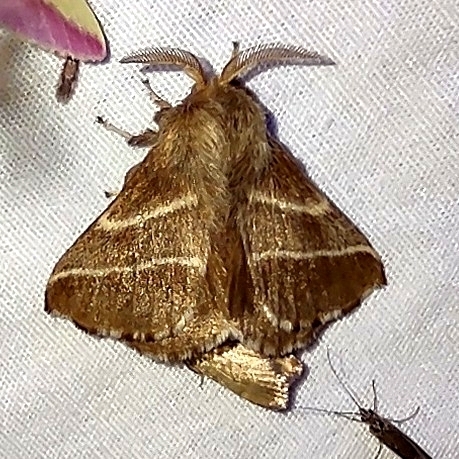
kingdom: Animalia
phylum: Arthropoda
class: Insecta
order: Lepidoptera
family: Lasiocampidae
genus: Malacosoma
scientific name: Malacosoma americana
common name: Eastern tent caterpillar moth
